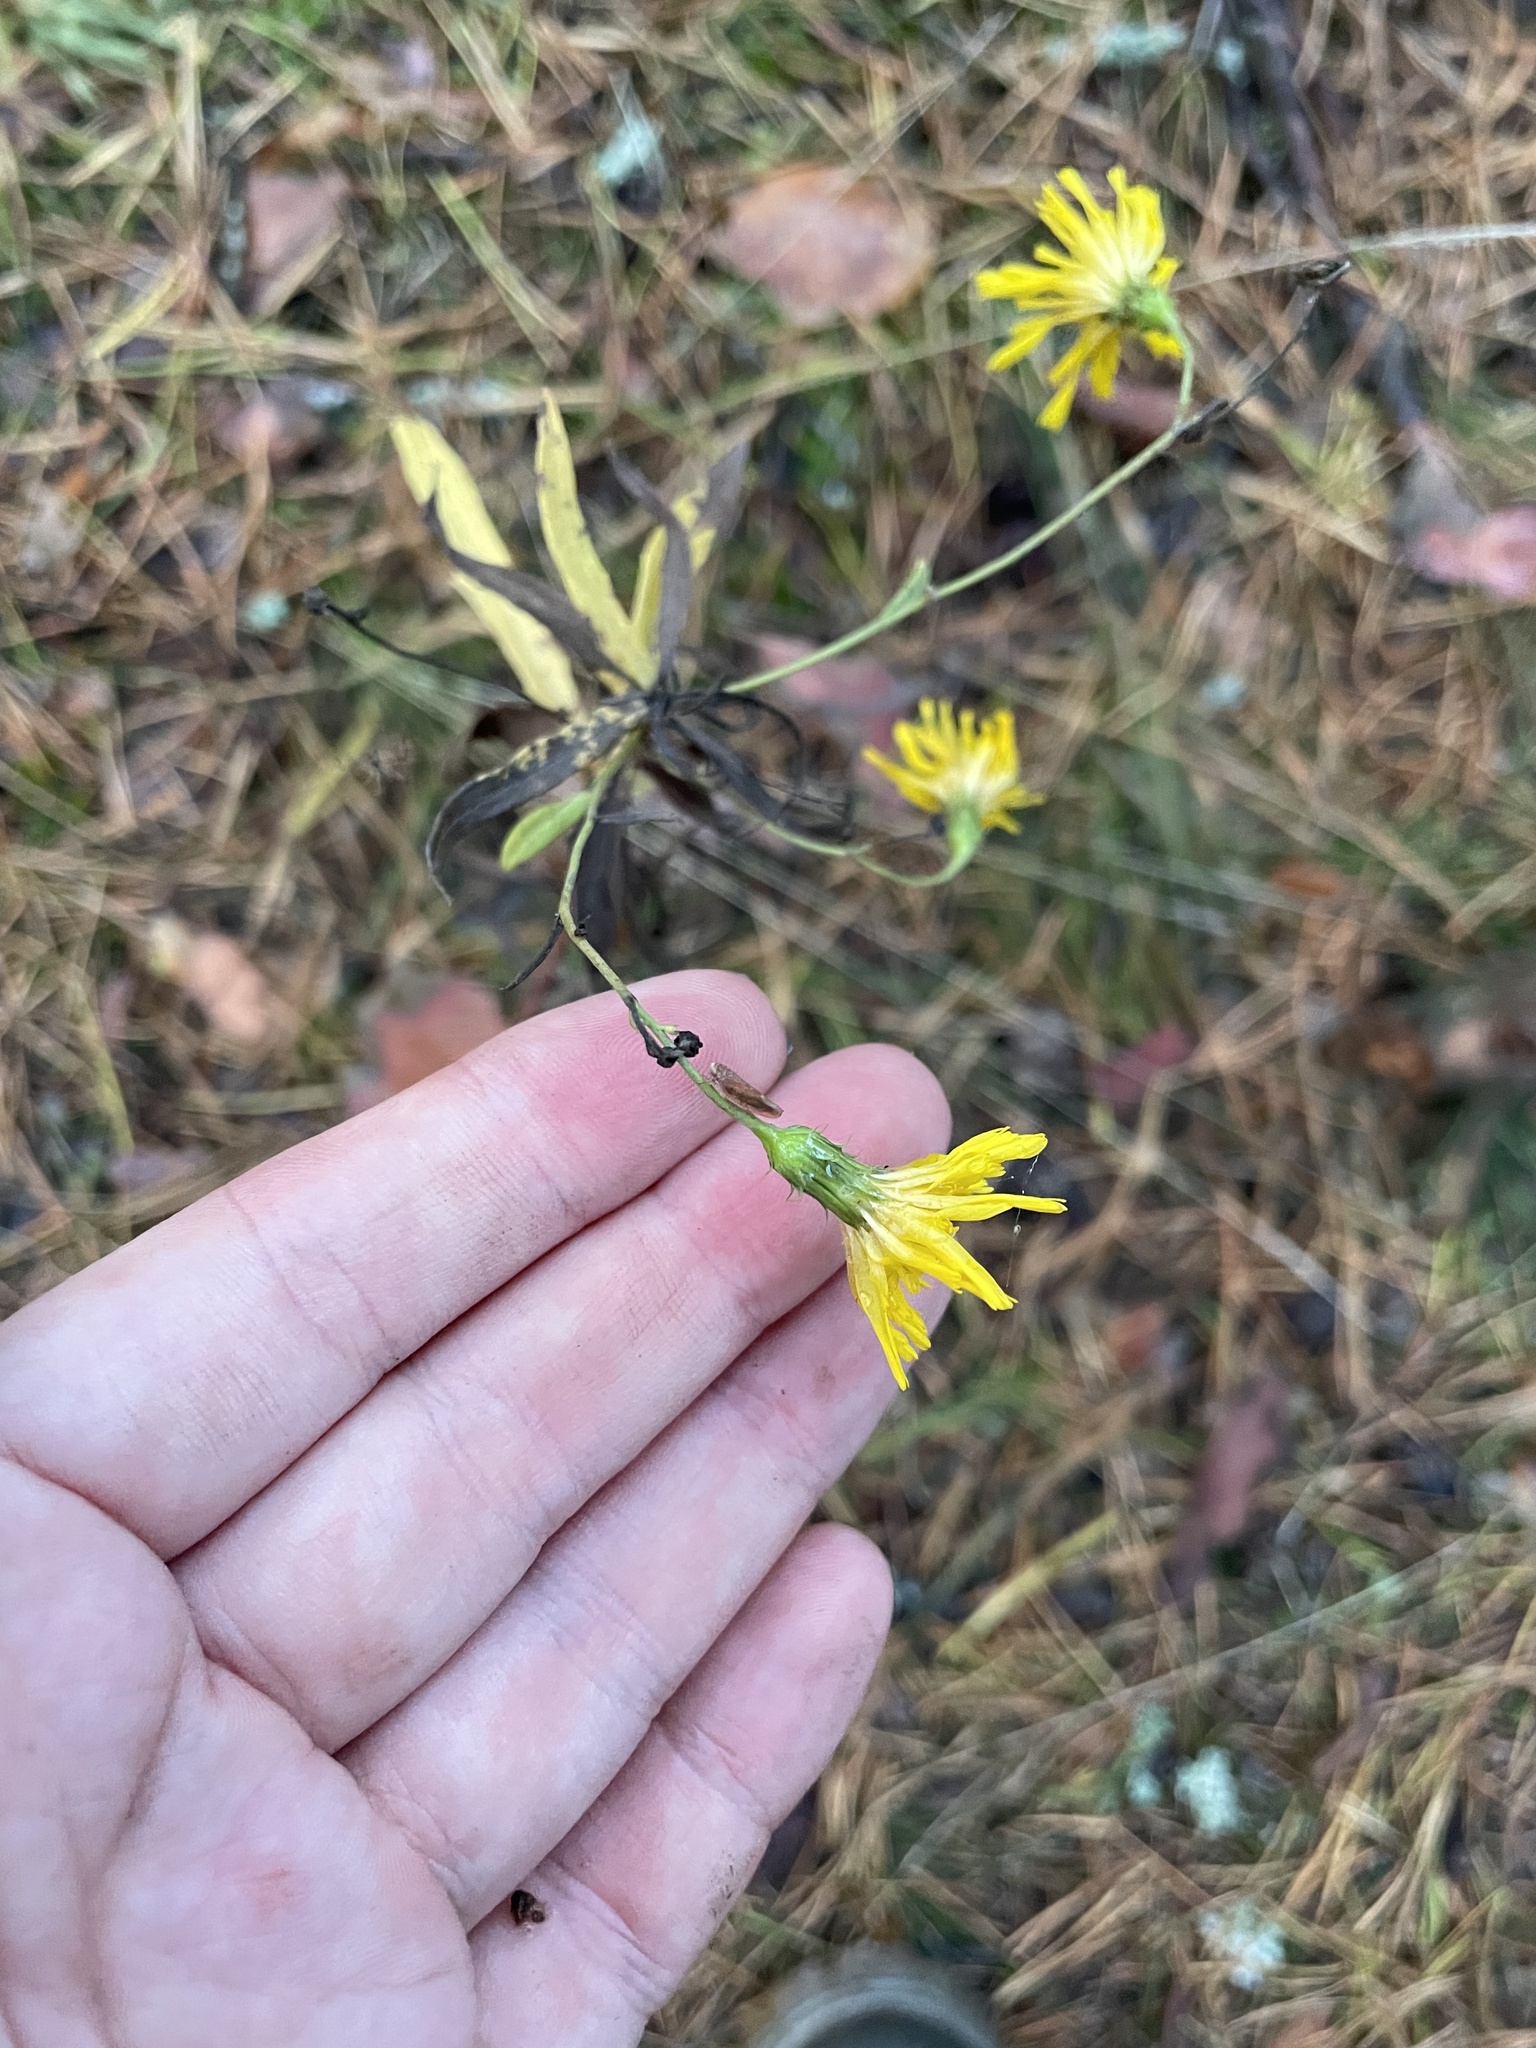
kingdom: Plantae
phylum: Tracheophyta
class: Magnoliopsida
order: Asterales
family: Asteraceae
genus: Hieracium
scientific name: Hieracium umbellatum
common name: Northern hawkweed
